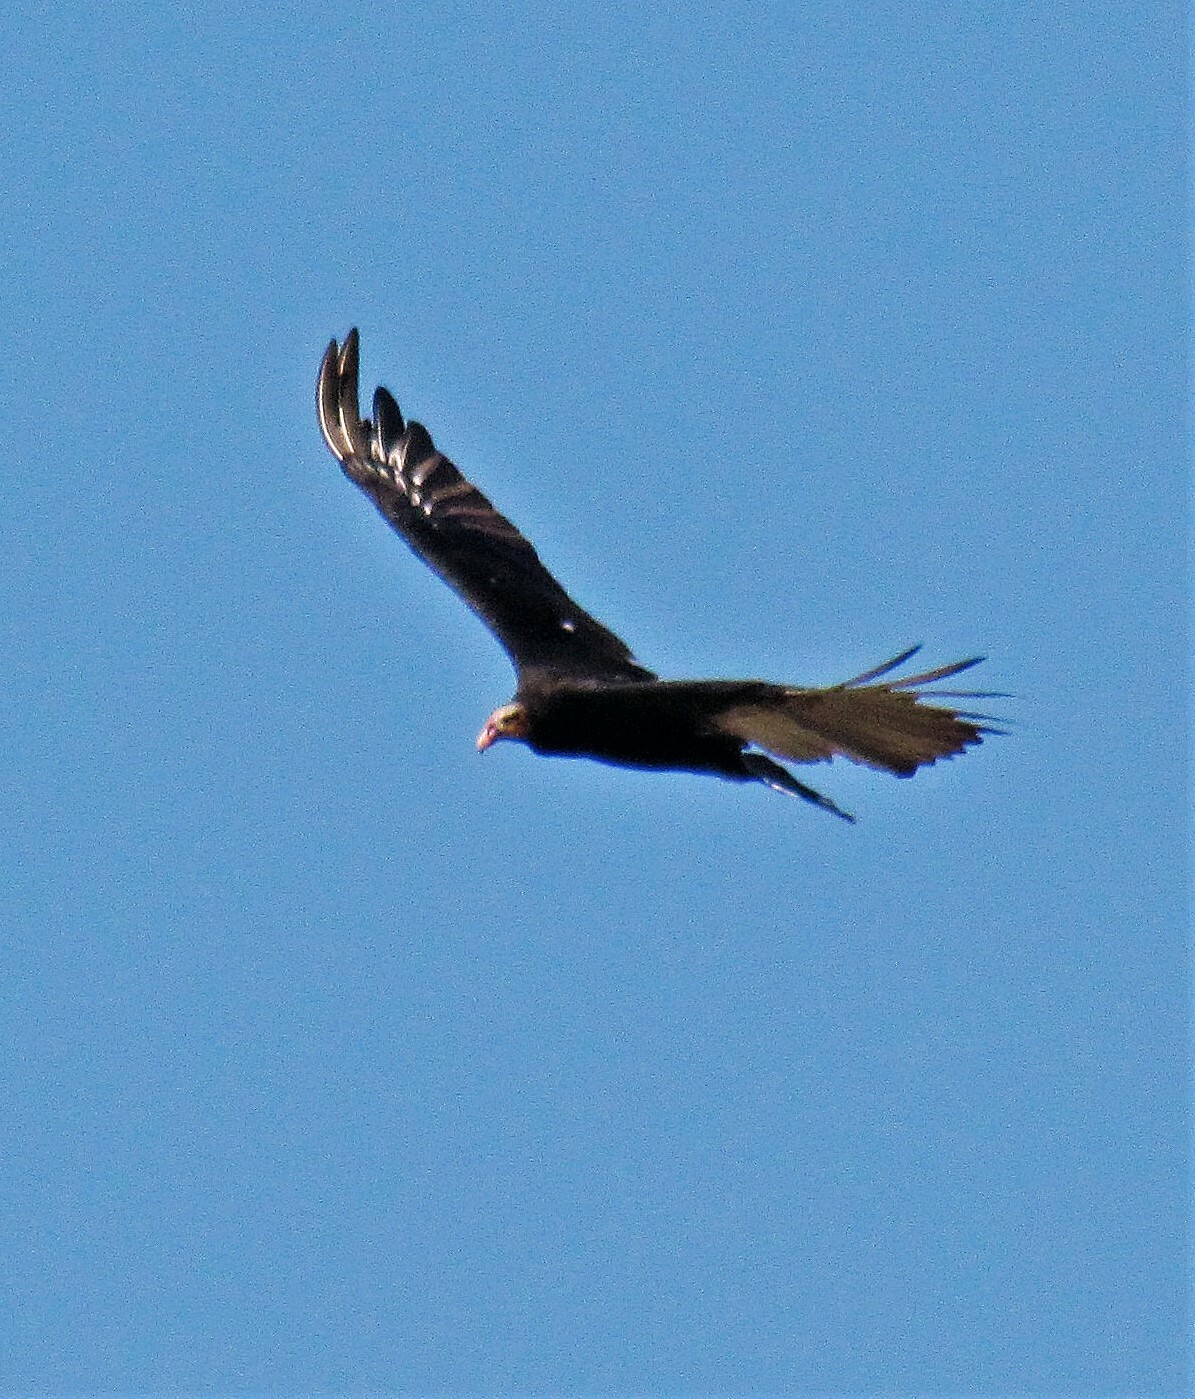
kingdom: Animalia
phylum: Chordata
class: Aves
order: Accipitriformes
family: Cathartidae
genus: Cathartes
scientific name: Cathartes burrovianus
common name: Lesser yellow-headed vulture
